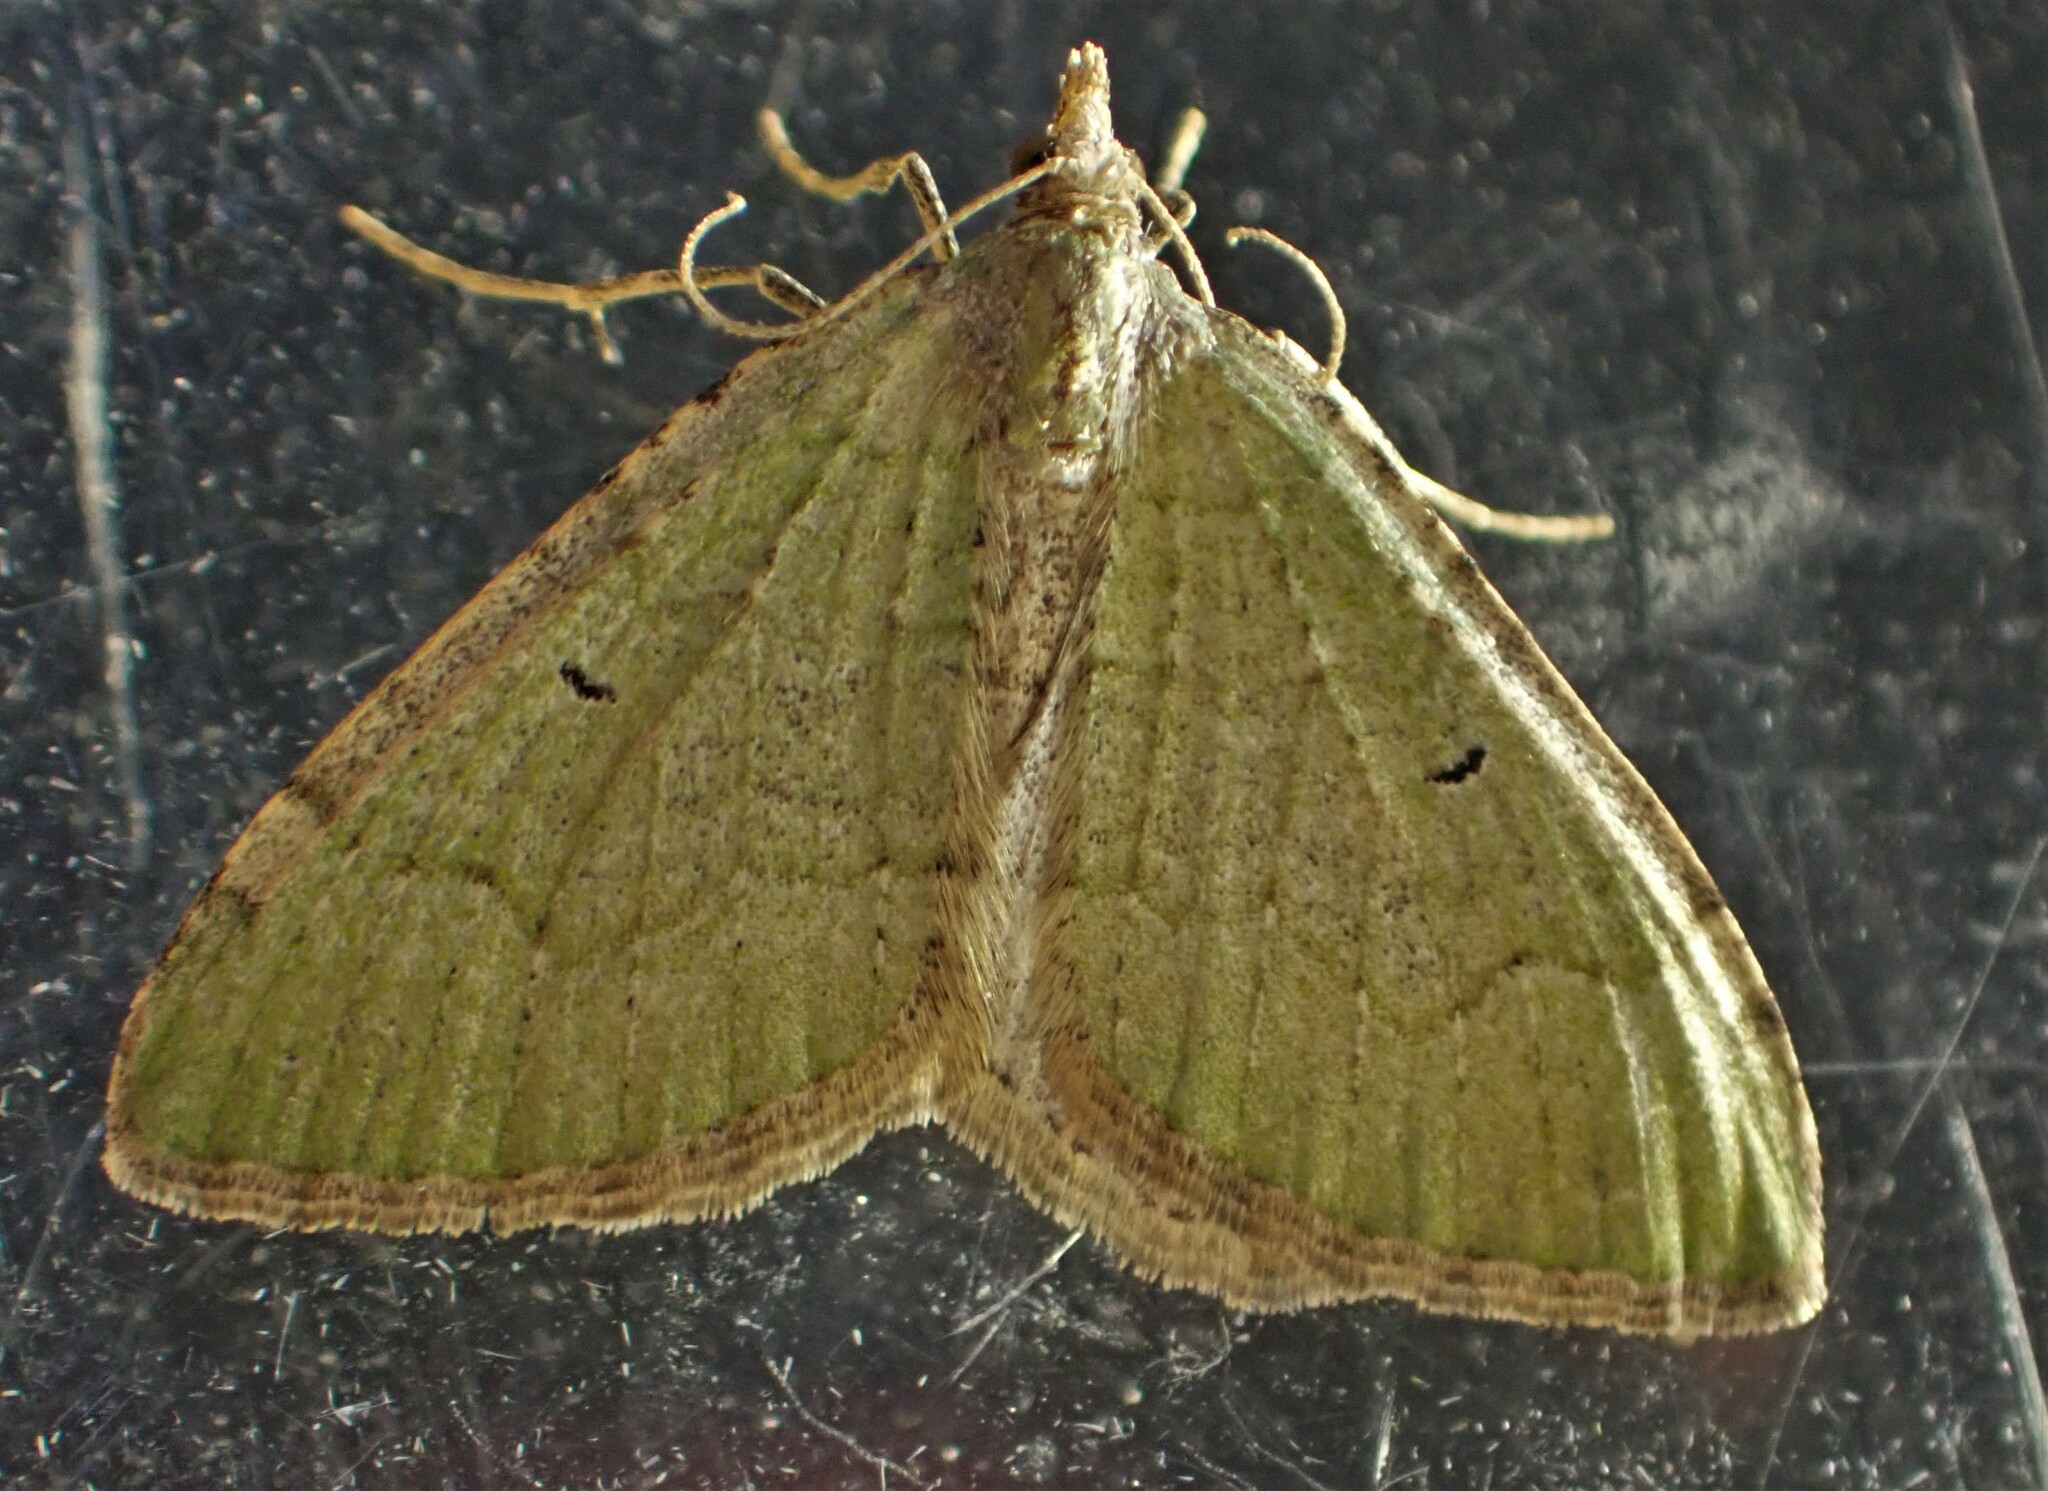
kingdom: Animalia
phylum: Arthropoda
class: Insecta
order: Lepidoptera
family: Geometridae
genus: Epyaxa
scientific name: Epyaxa rosearia
